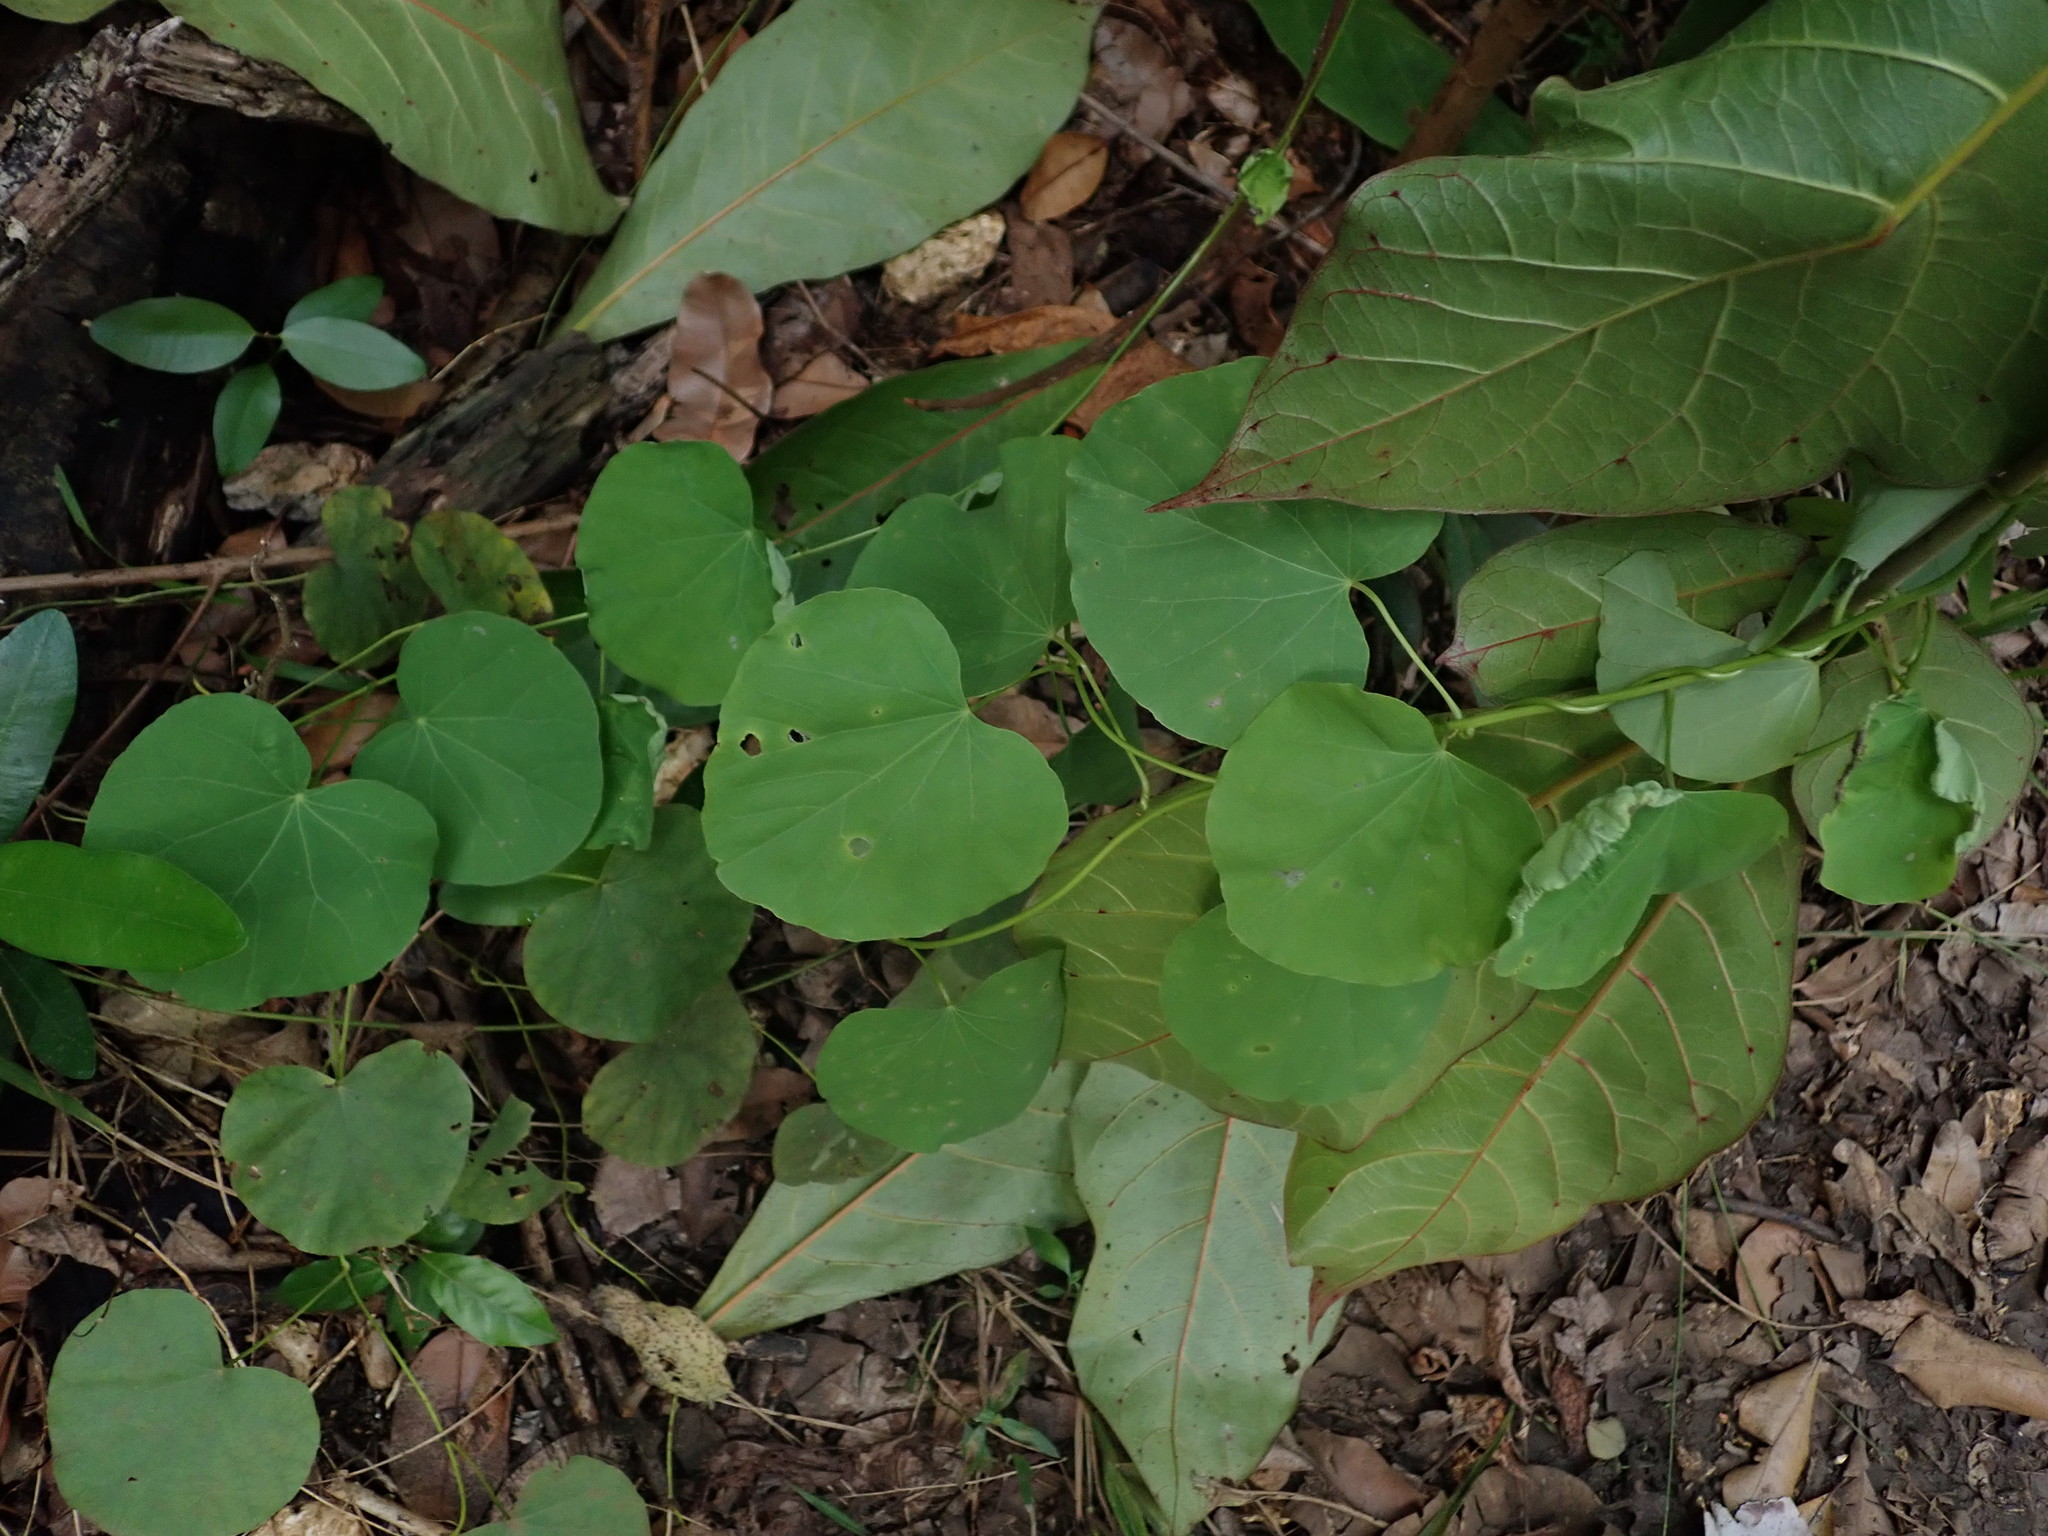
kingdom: Plantae
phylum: Tracheophyta
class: Magnoliopsida
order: Ranunculales
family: Menispermaceae
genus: Cissampelos
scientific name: Cissampelos pareira
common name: Velvetleaf
